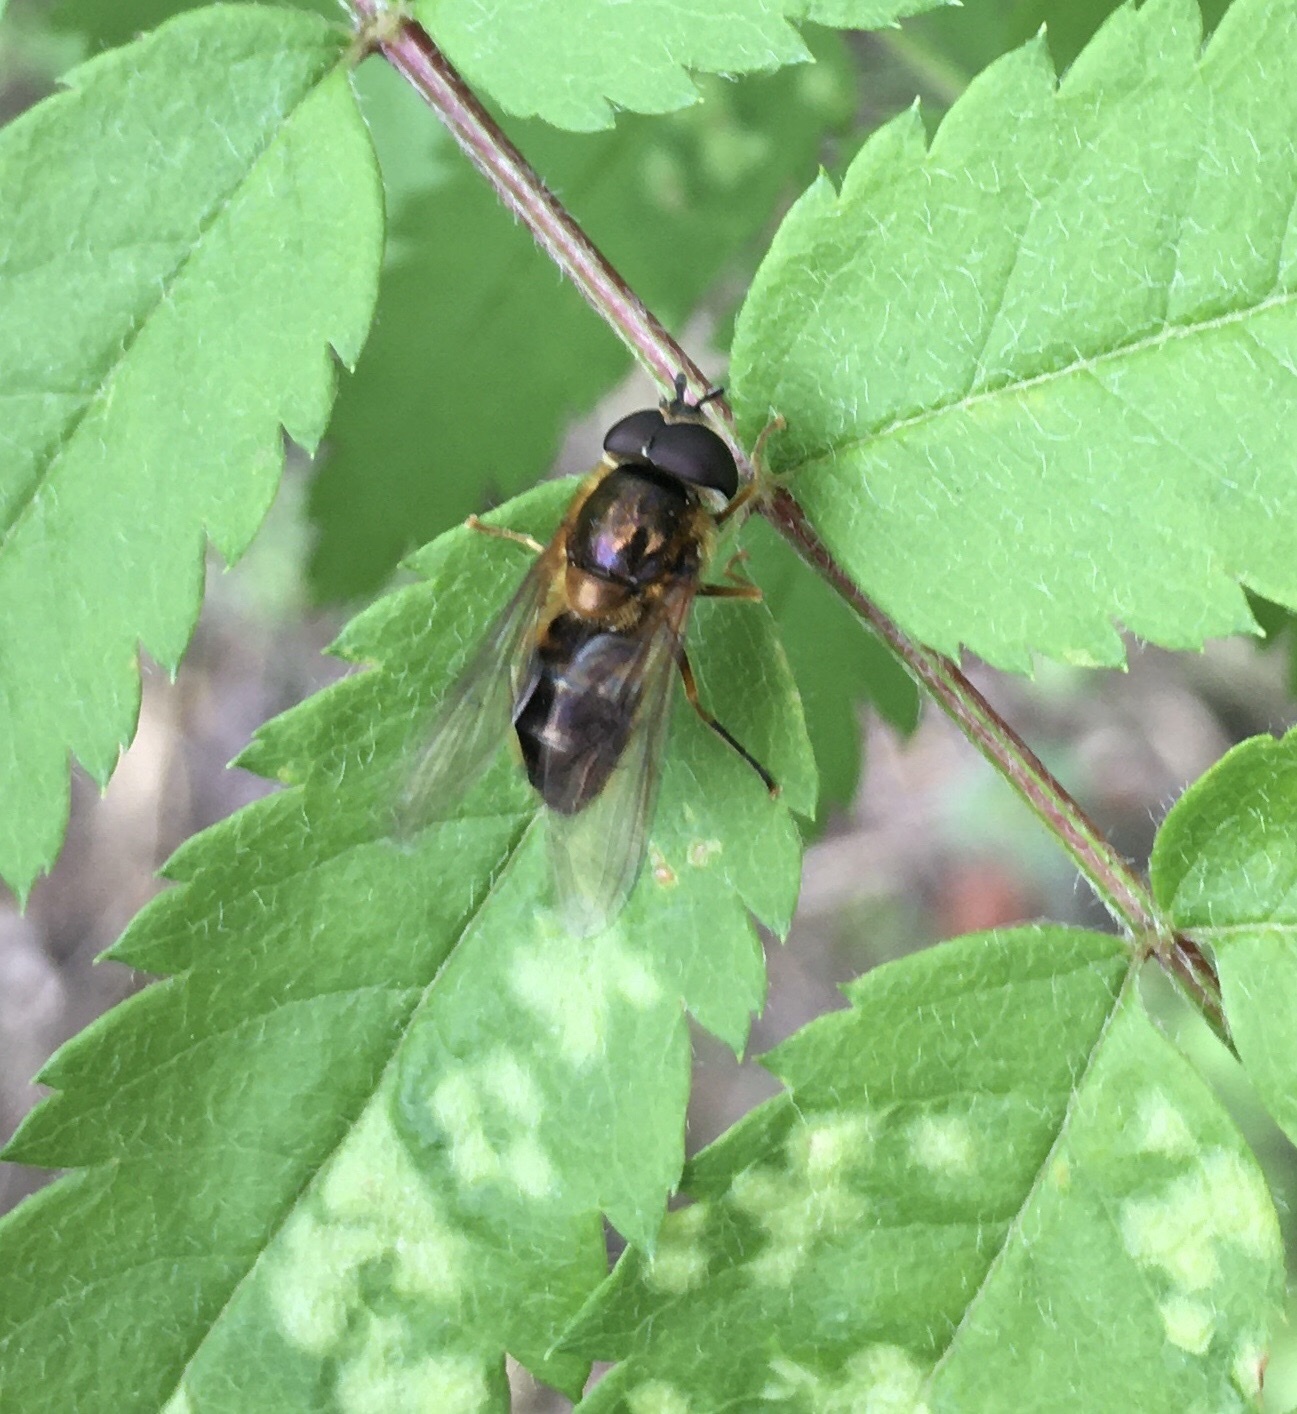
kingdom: Animalia
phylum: Arthropoda
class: Insecta
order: Diptera
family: Syrphidae
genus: Epistrophe
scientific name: Epistrophe eligans
